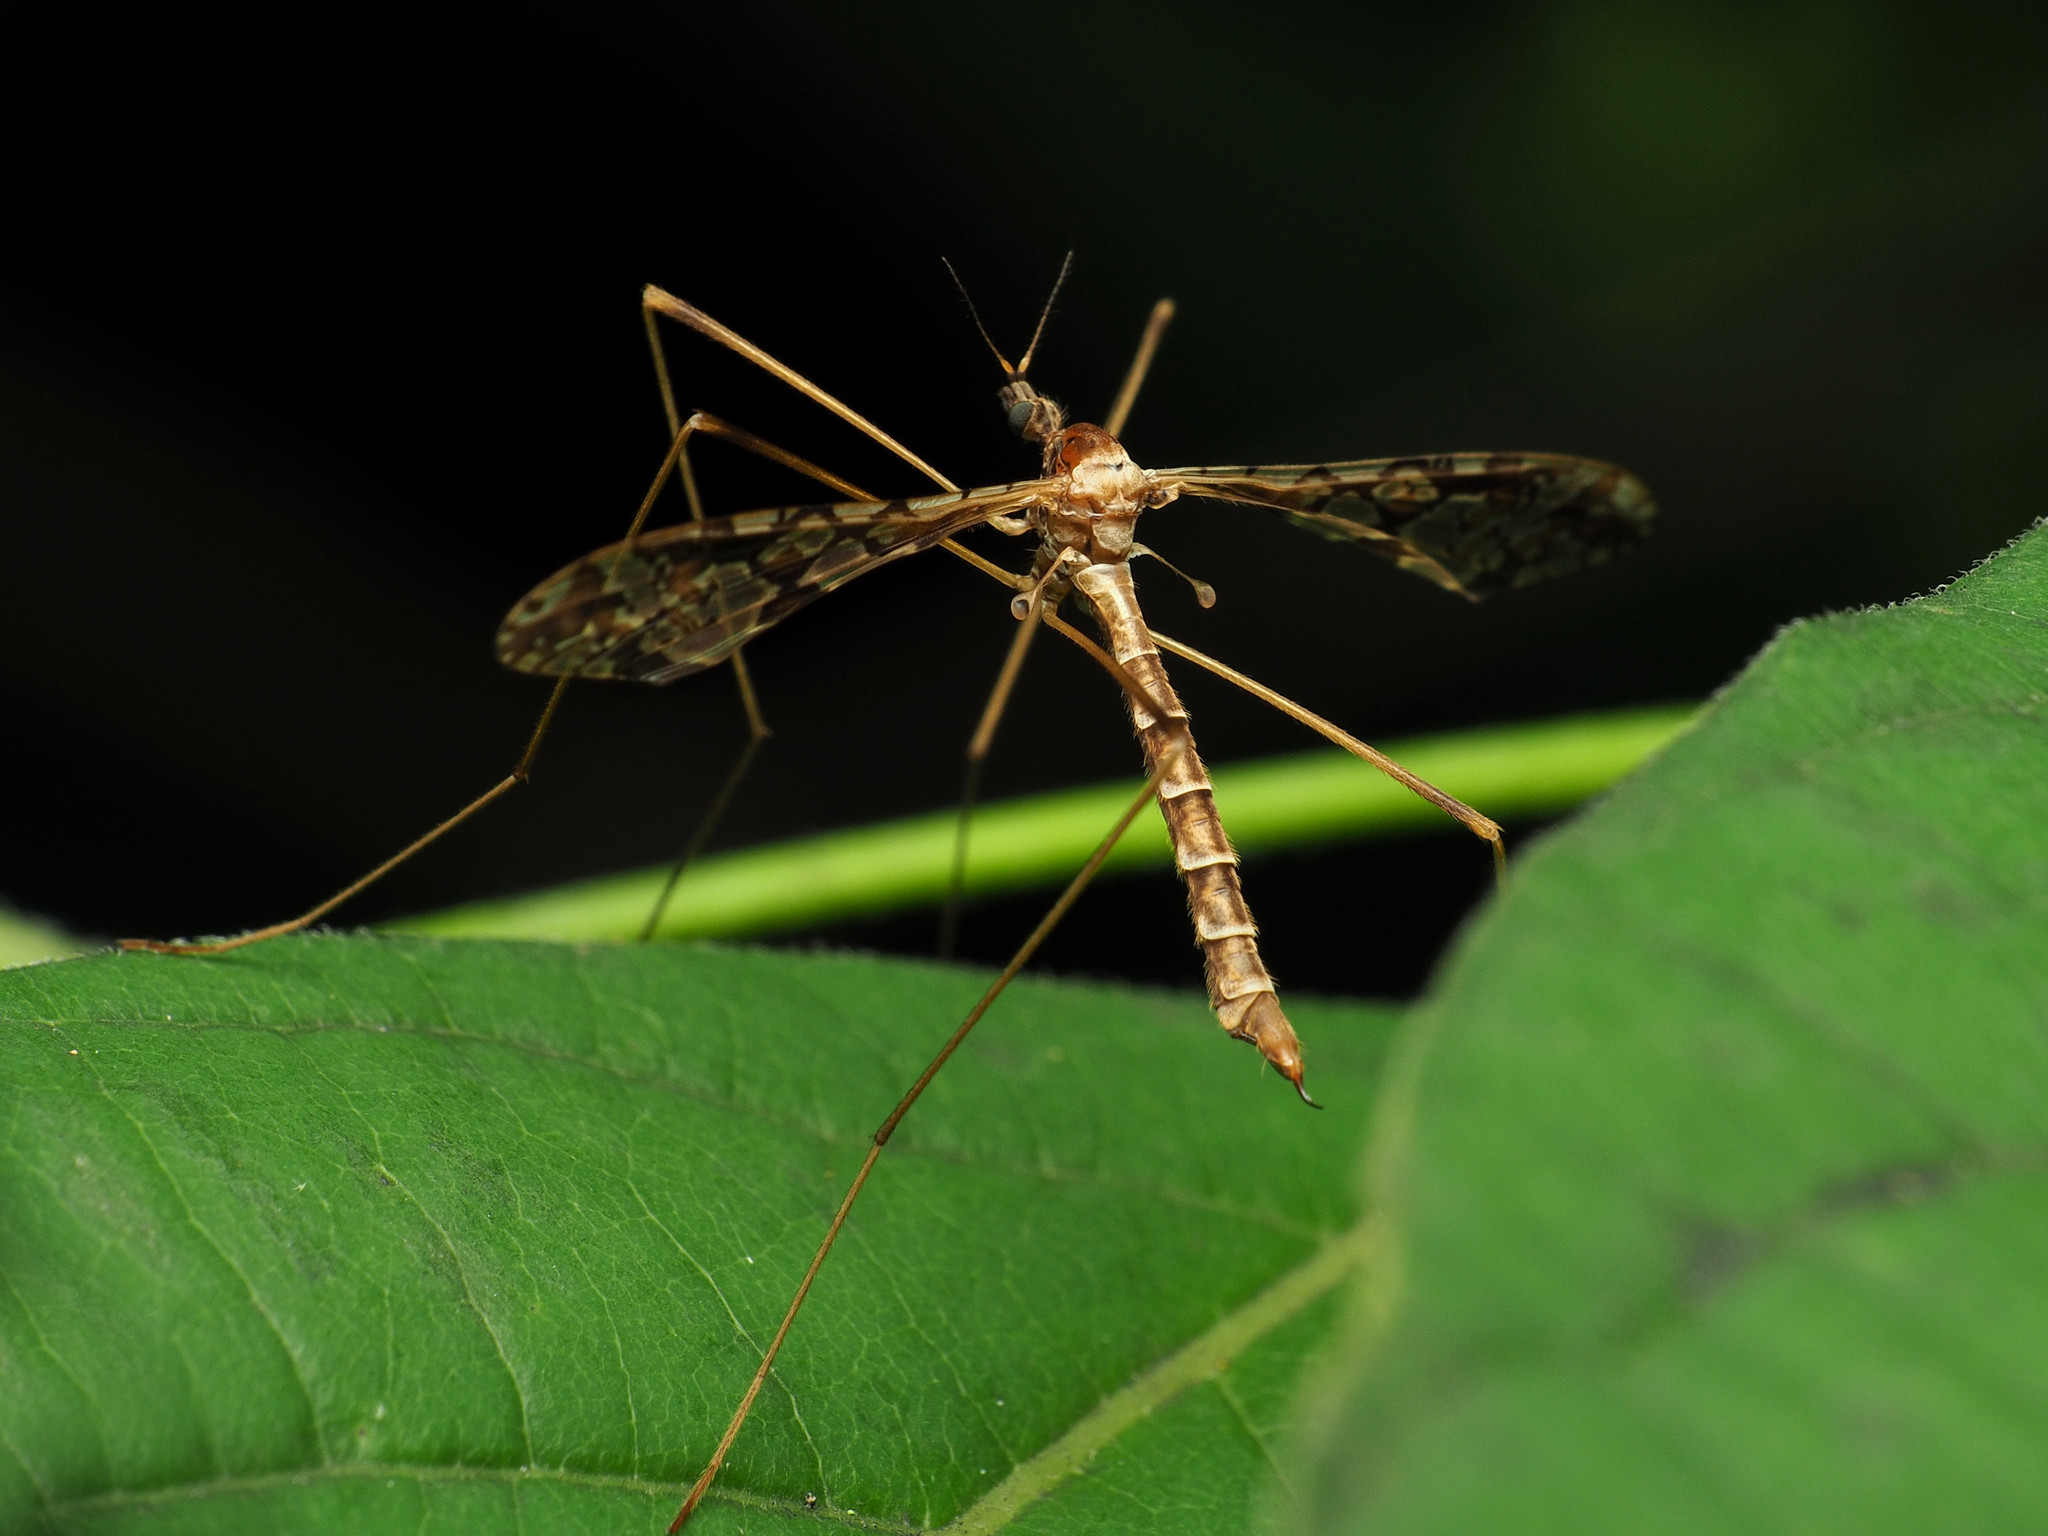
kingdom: Animalia
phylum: Arthropoda
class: Insecta
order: Diptera
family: Limoniidae
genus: Epiphragma
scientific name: Epiphragma solatrix
